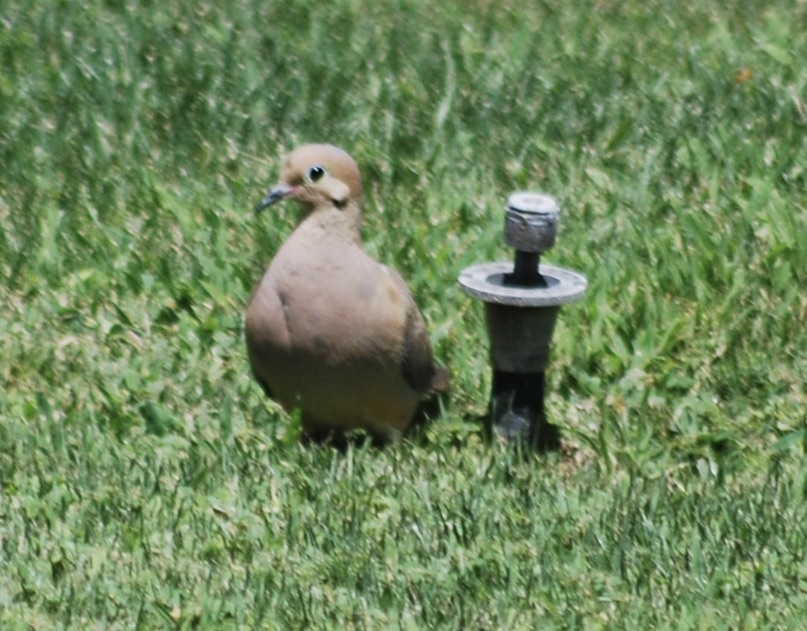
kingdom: Animalia
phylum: Chordata
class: Aves
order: Columbiformes
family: Columbidae
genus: Zenaida
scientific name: Zenaida macroura
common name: Mourning dove
